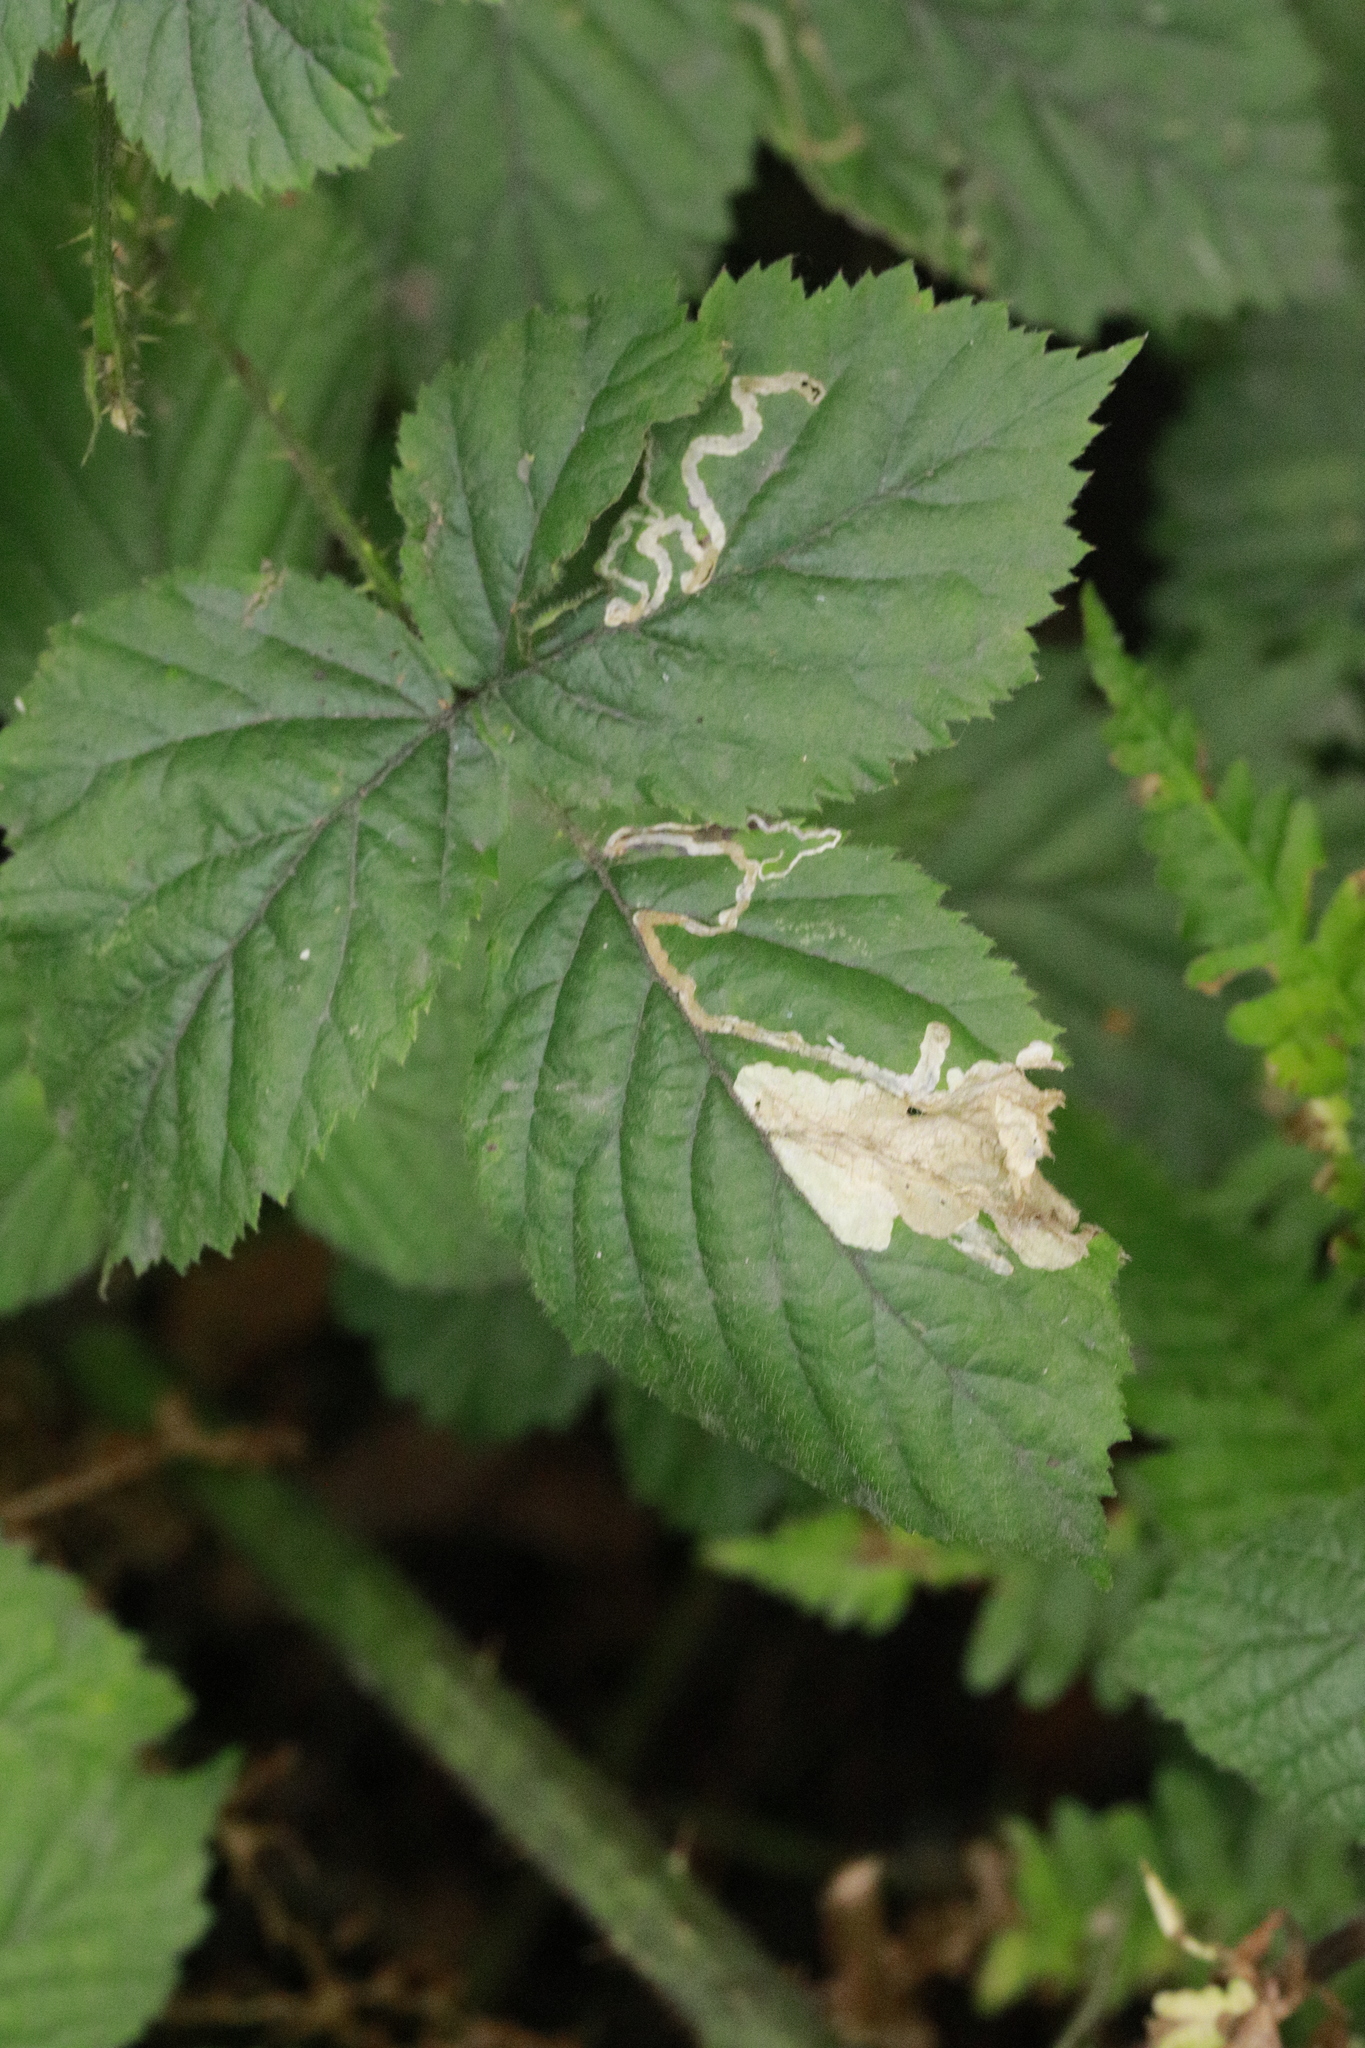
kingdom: Animalia
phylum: Arthropoda
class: Insecta
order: Lepidoptera
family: Nepticulidae
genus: Stigmella
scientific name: Stigmella aurella
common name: Golden pigmy
